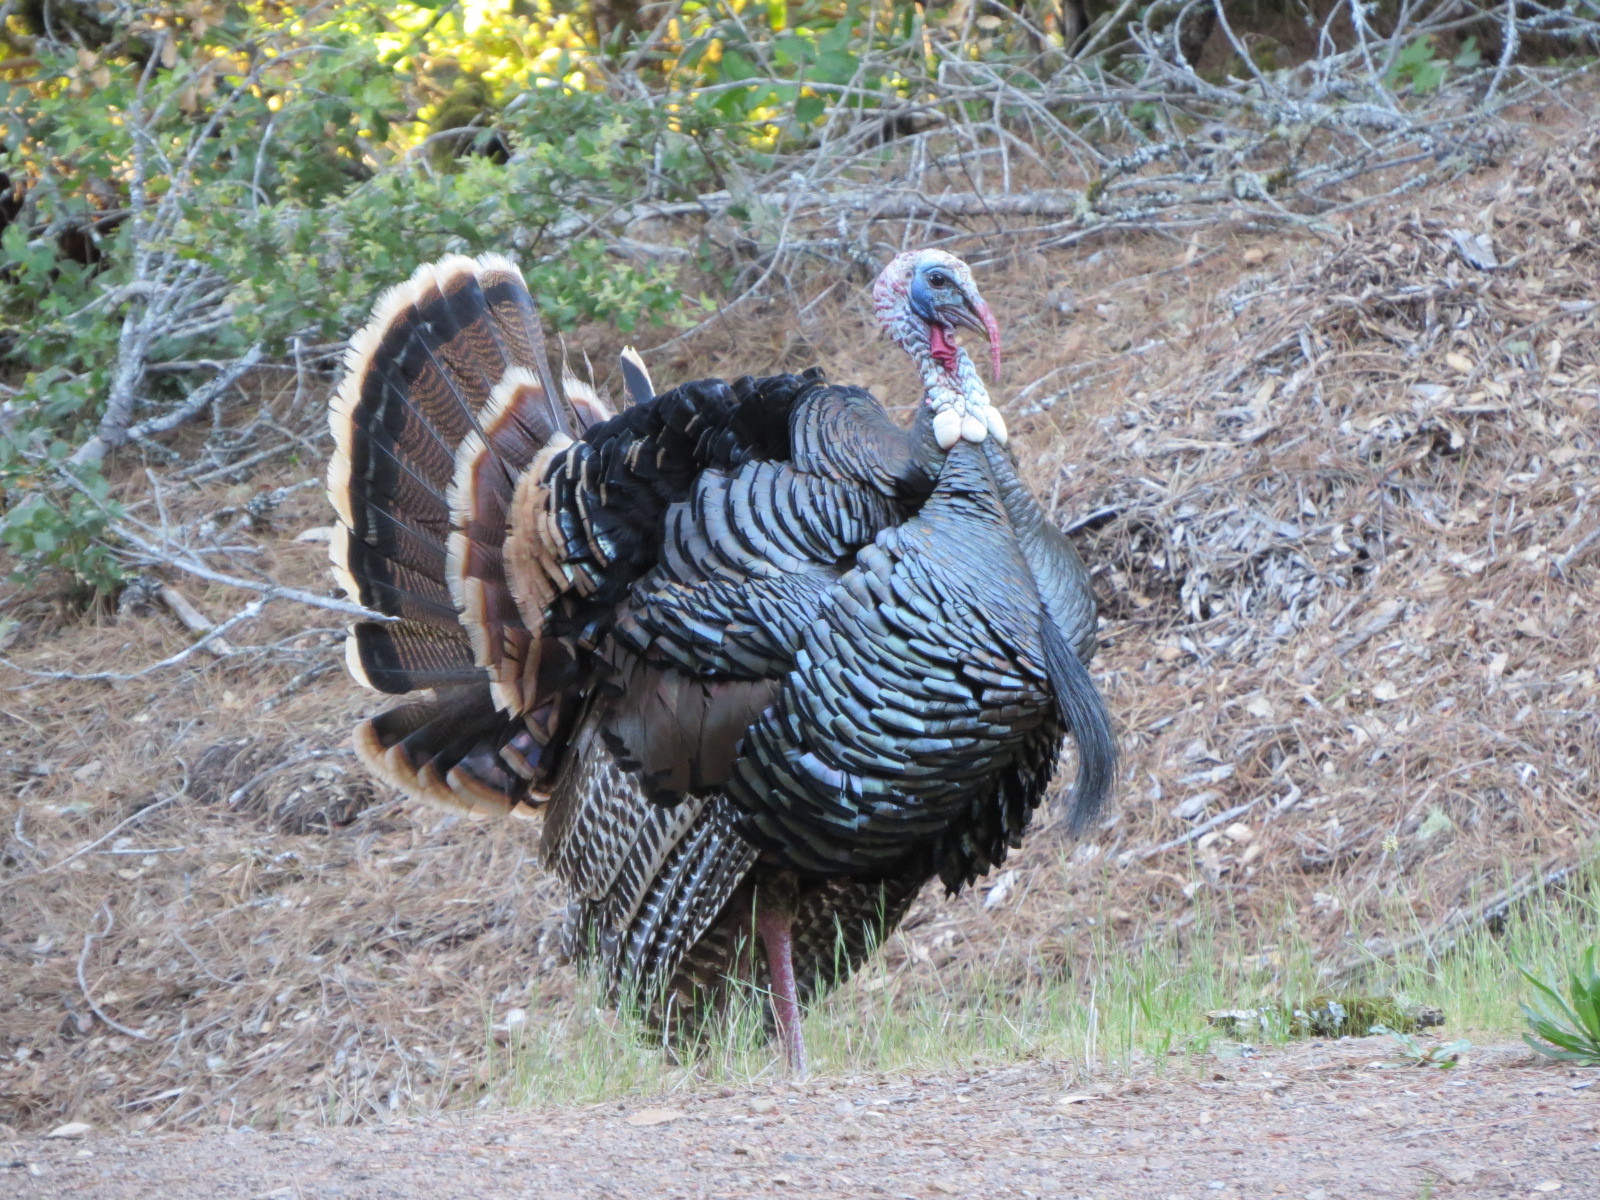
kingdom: Animalia
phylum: Chordata
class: Aves
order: Galliformes
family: Phasianidae
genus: Meleagris
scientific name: Meleagris gallopavo
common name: Wild turkey
